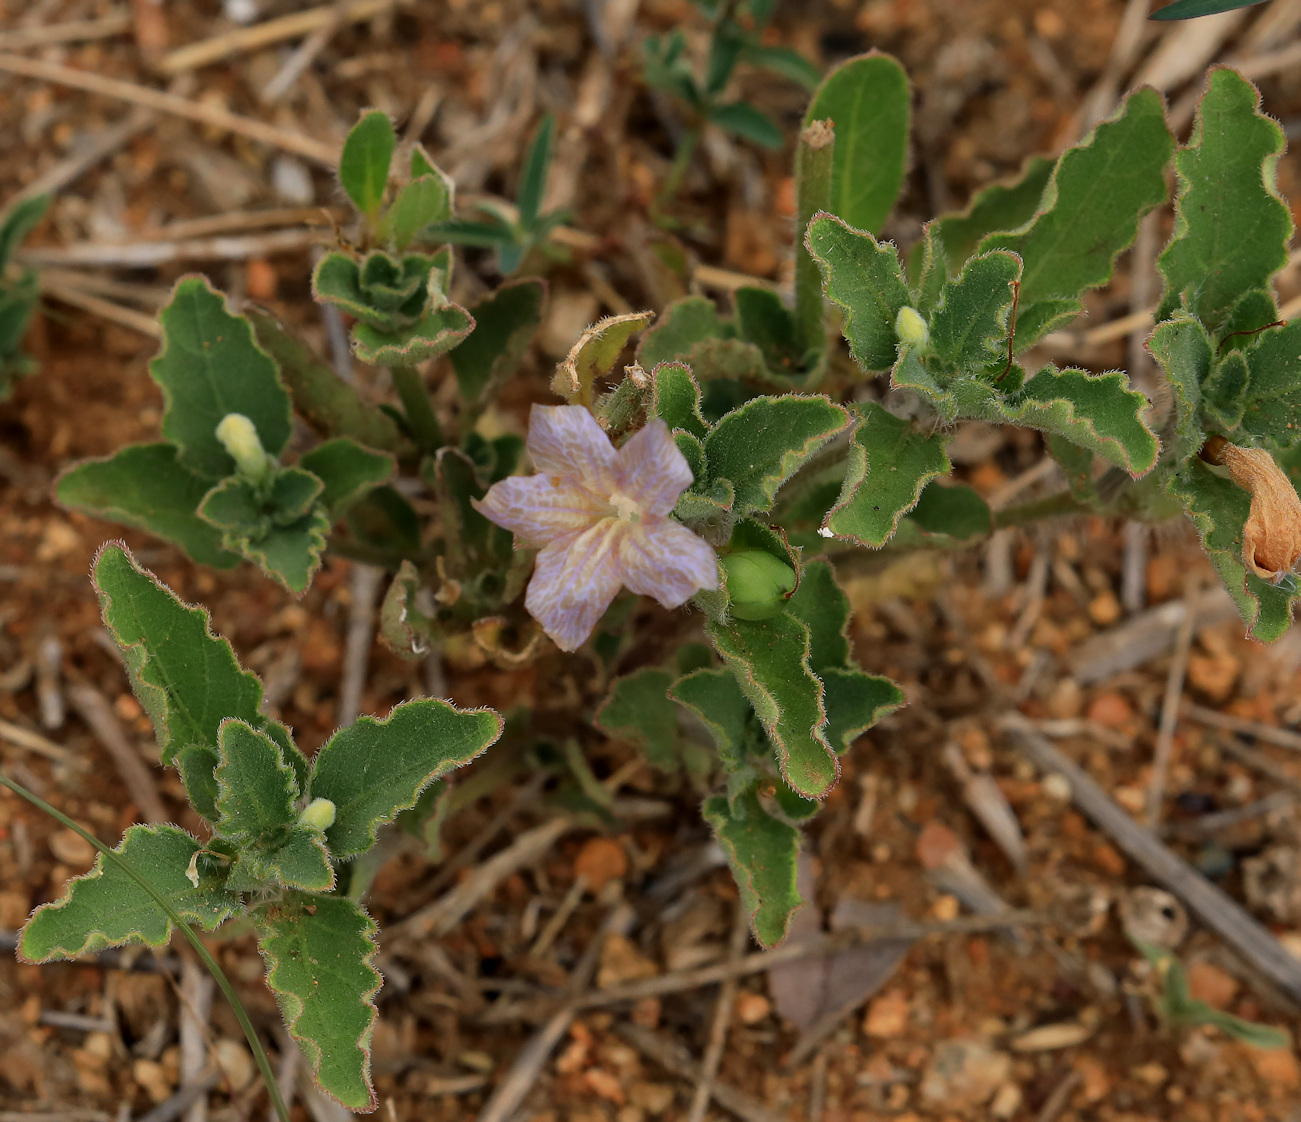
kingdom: Plantae
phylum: Tracheophyta
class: Magnoliopsida
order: Lamiales
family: Acanthaceae
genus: Ruellia
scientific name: Ruellia cordata
